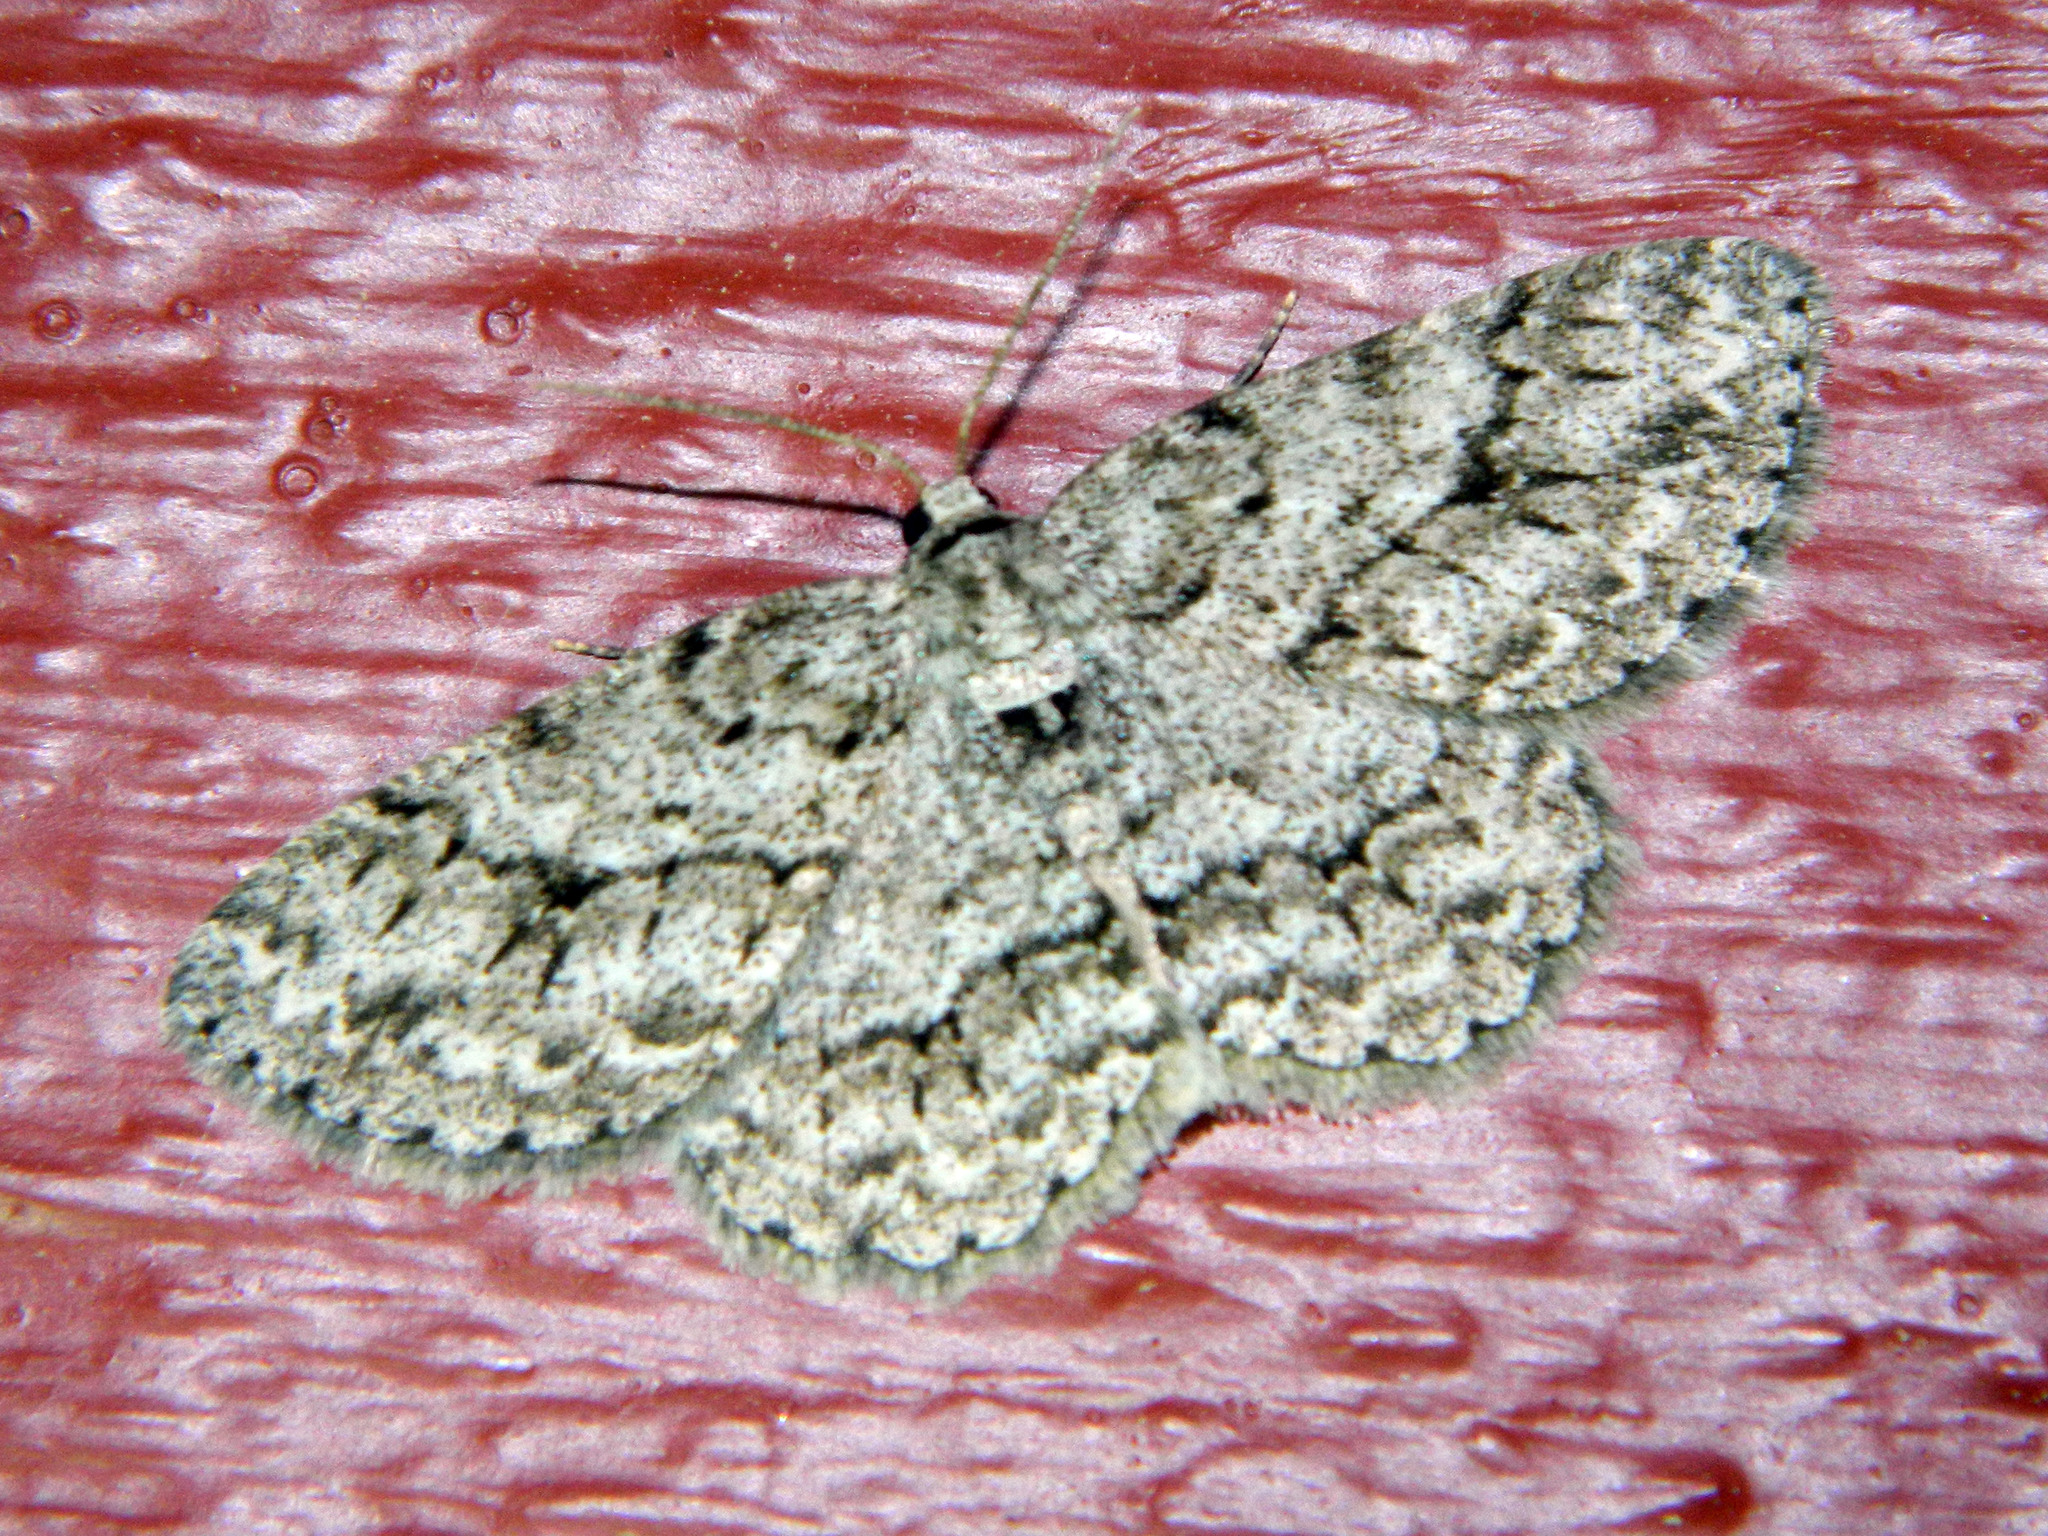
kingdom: Animalia
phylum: Arthropoda
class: Insecta
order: Lepidoptera
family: Geometridae
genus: Ectropis
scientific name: Ectropis crepuscularia
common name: Engrailed
